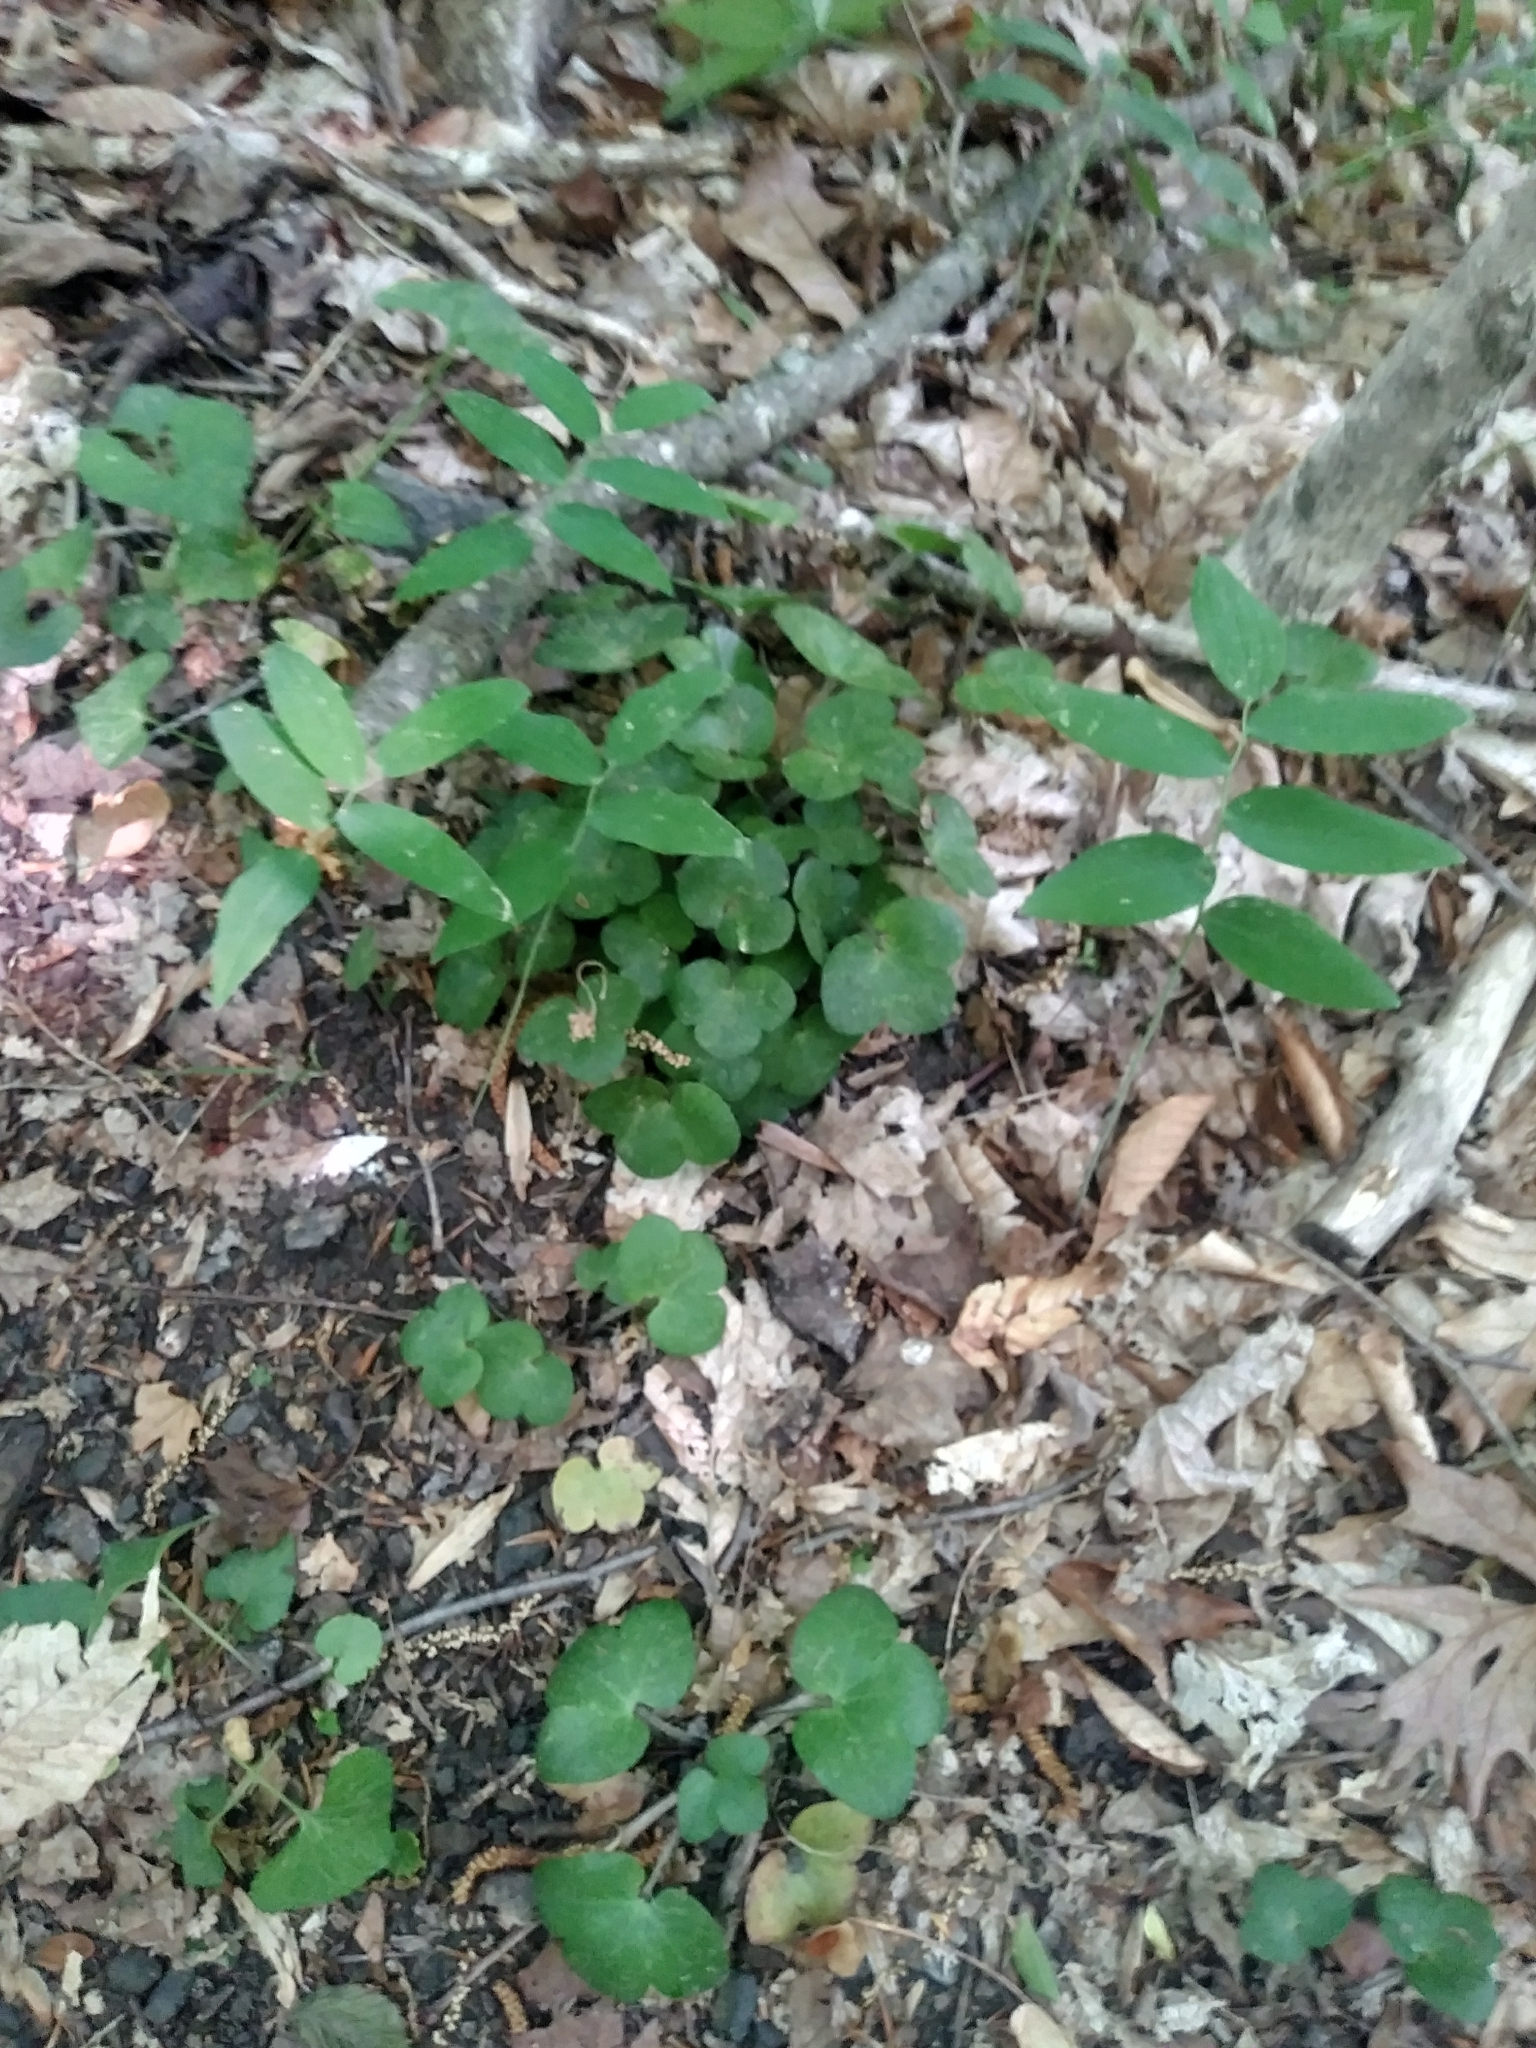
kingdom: Plantae
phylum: Tracheophyta
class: Magnoliopsida
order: Ranunculales
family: Ranunculaceae
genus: Hepatica
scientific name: Hepatica americana
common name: American hepatica
